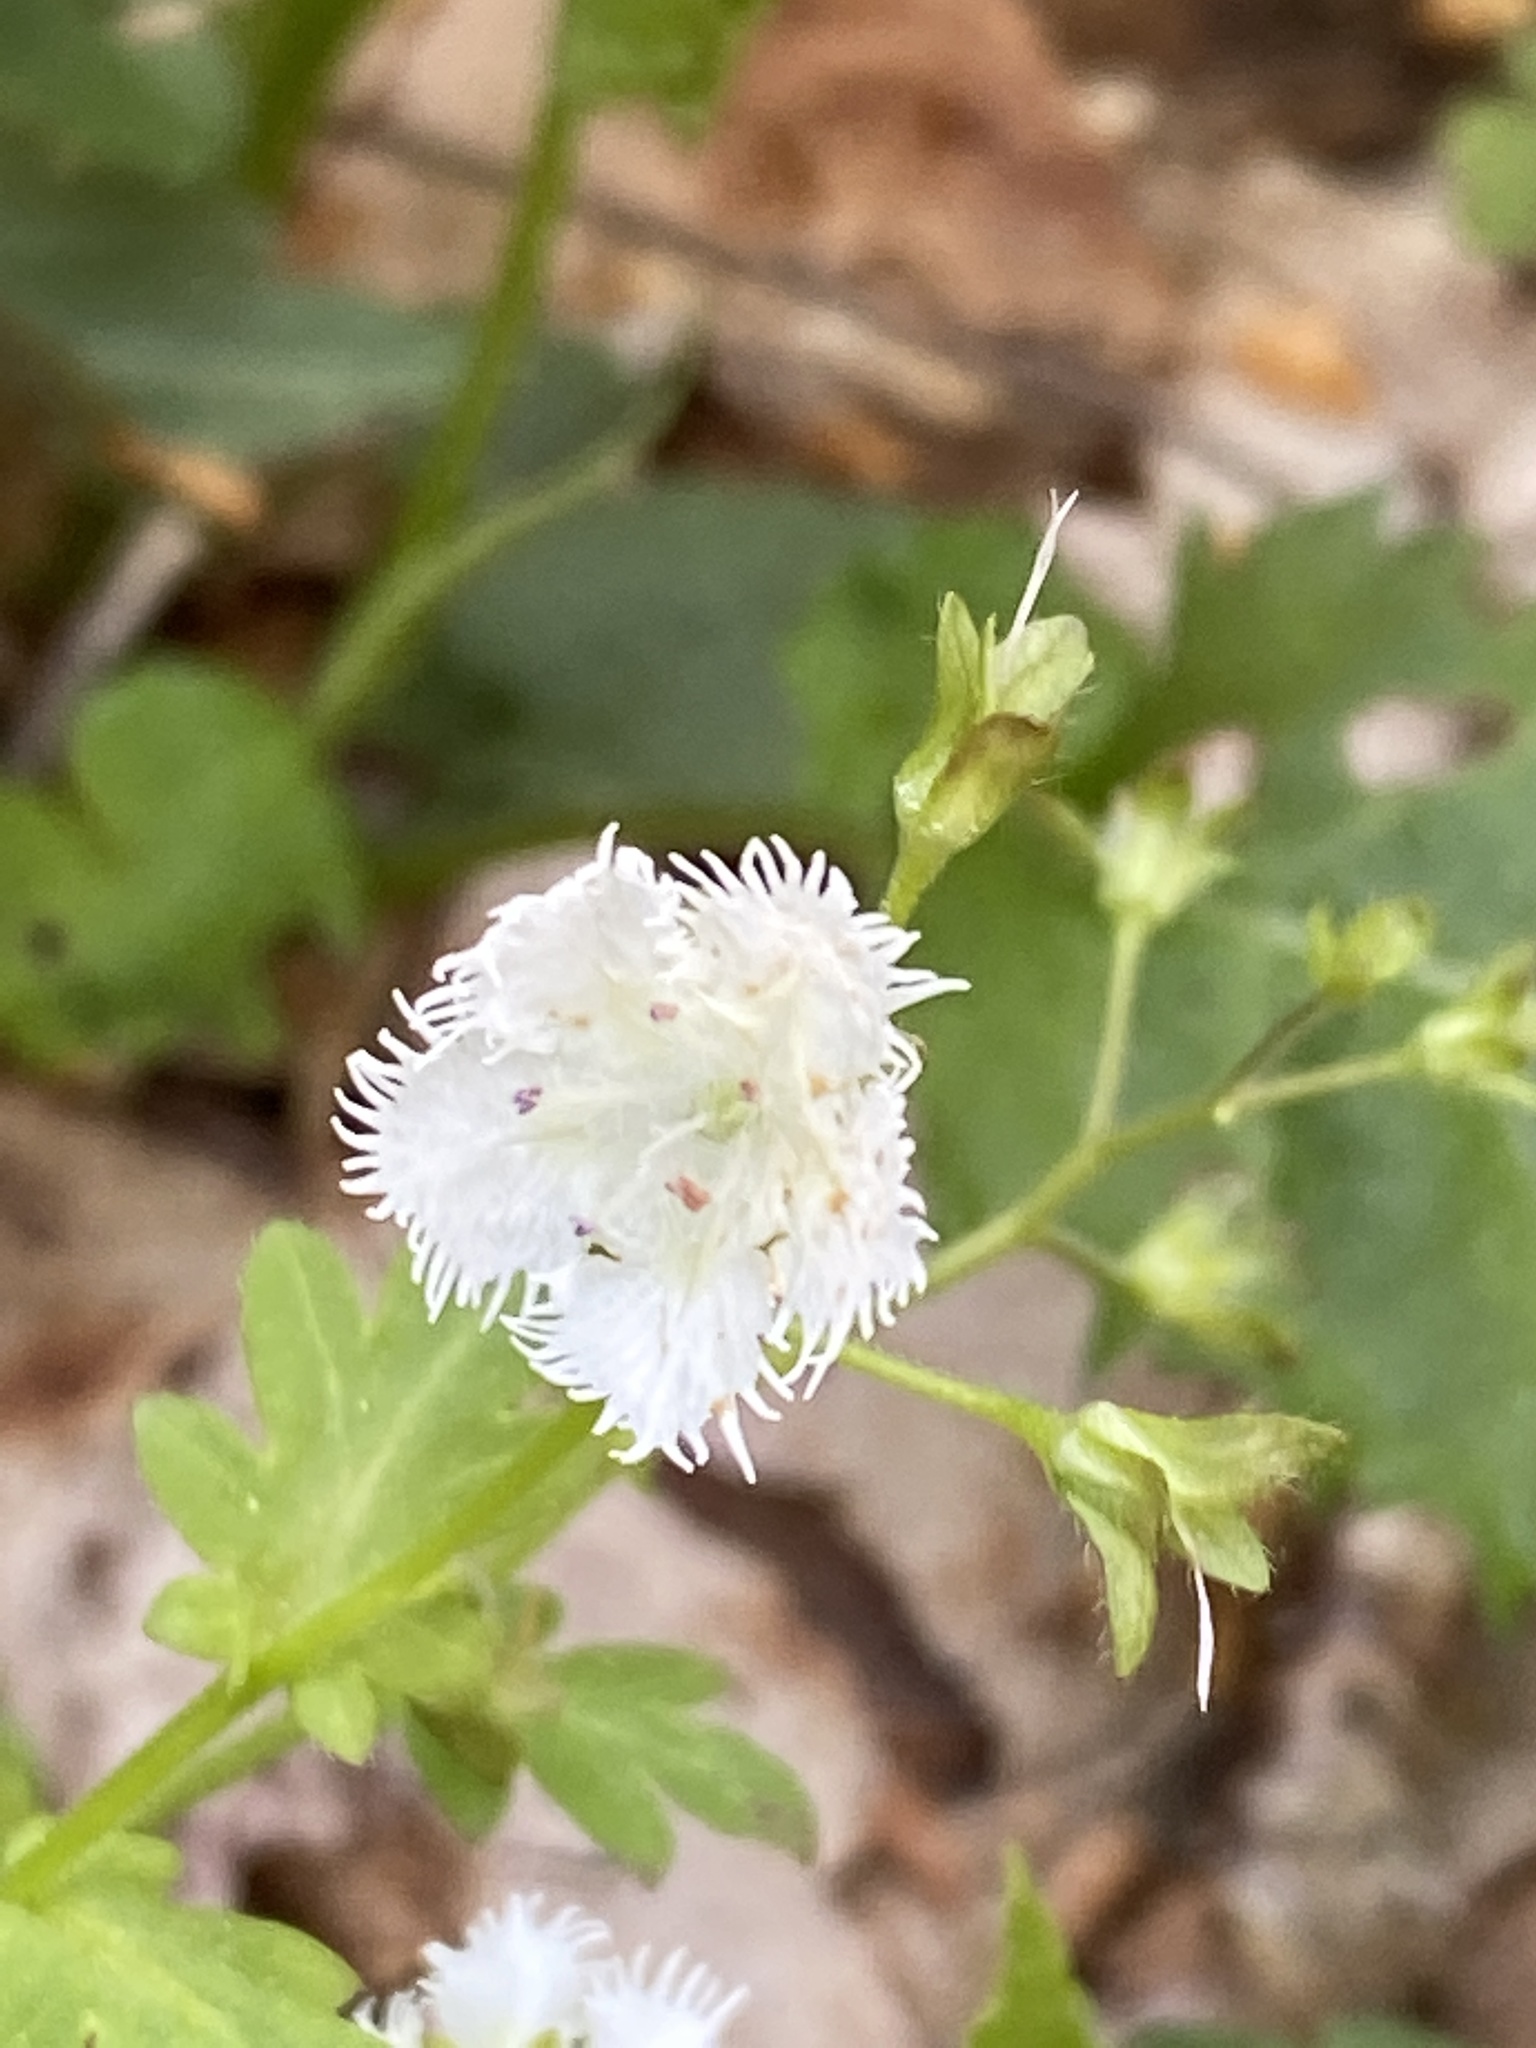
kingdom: Plantae
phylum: Tracheophyta
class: Magnoliopsida
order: Boraginales
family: Hydrophyllaceae
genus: Phacelia
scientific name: Phacelia fimbriata
